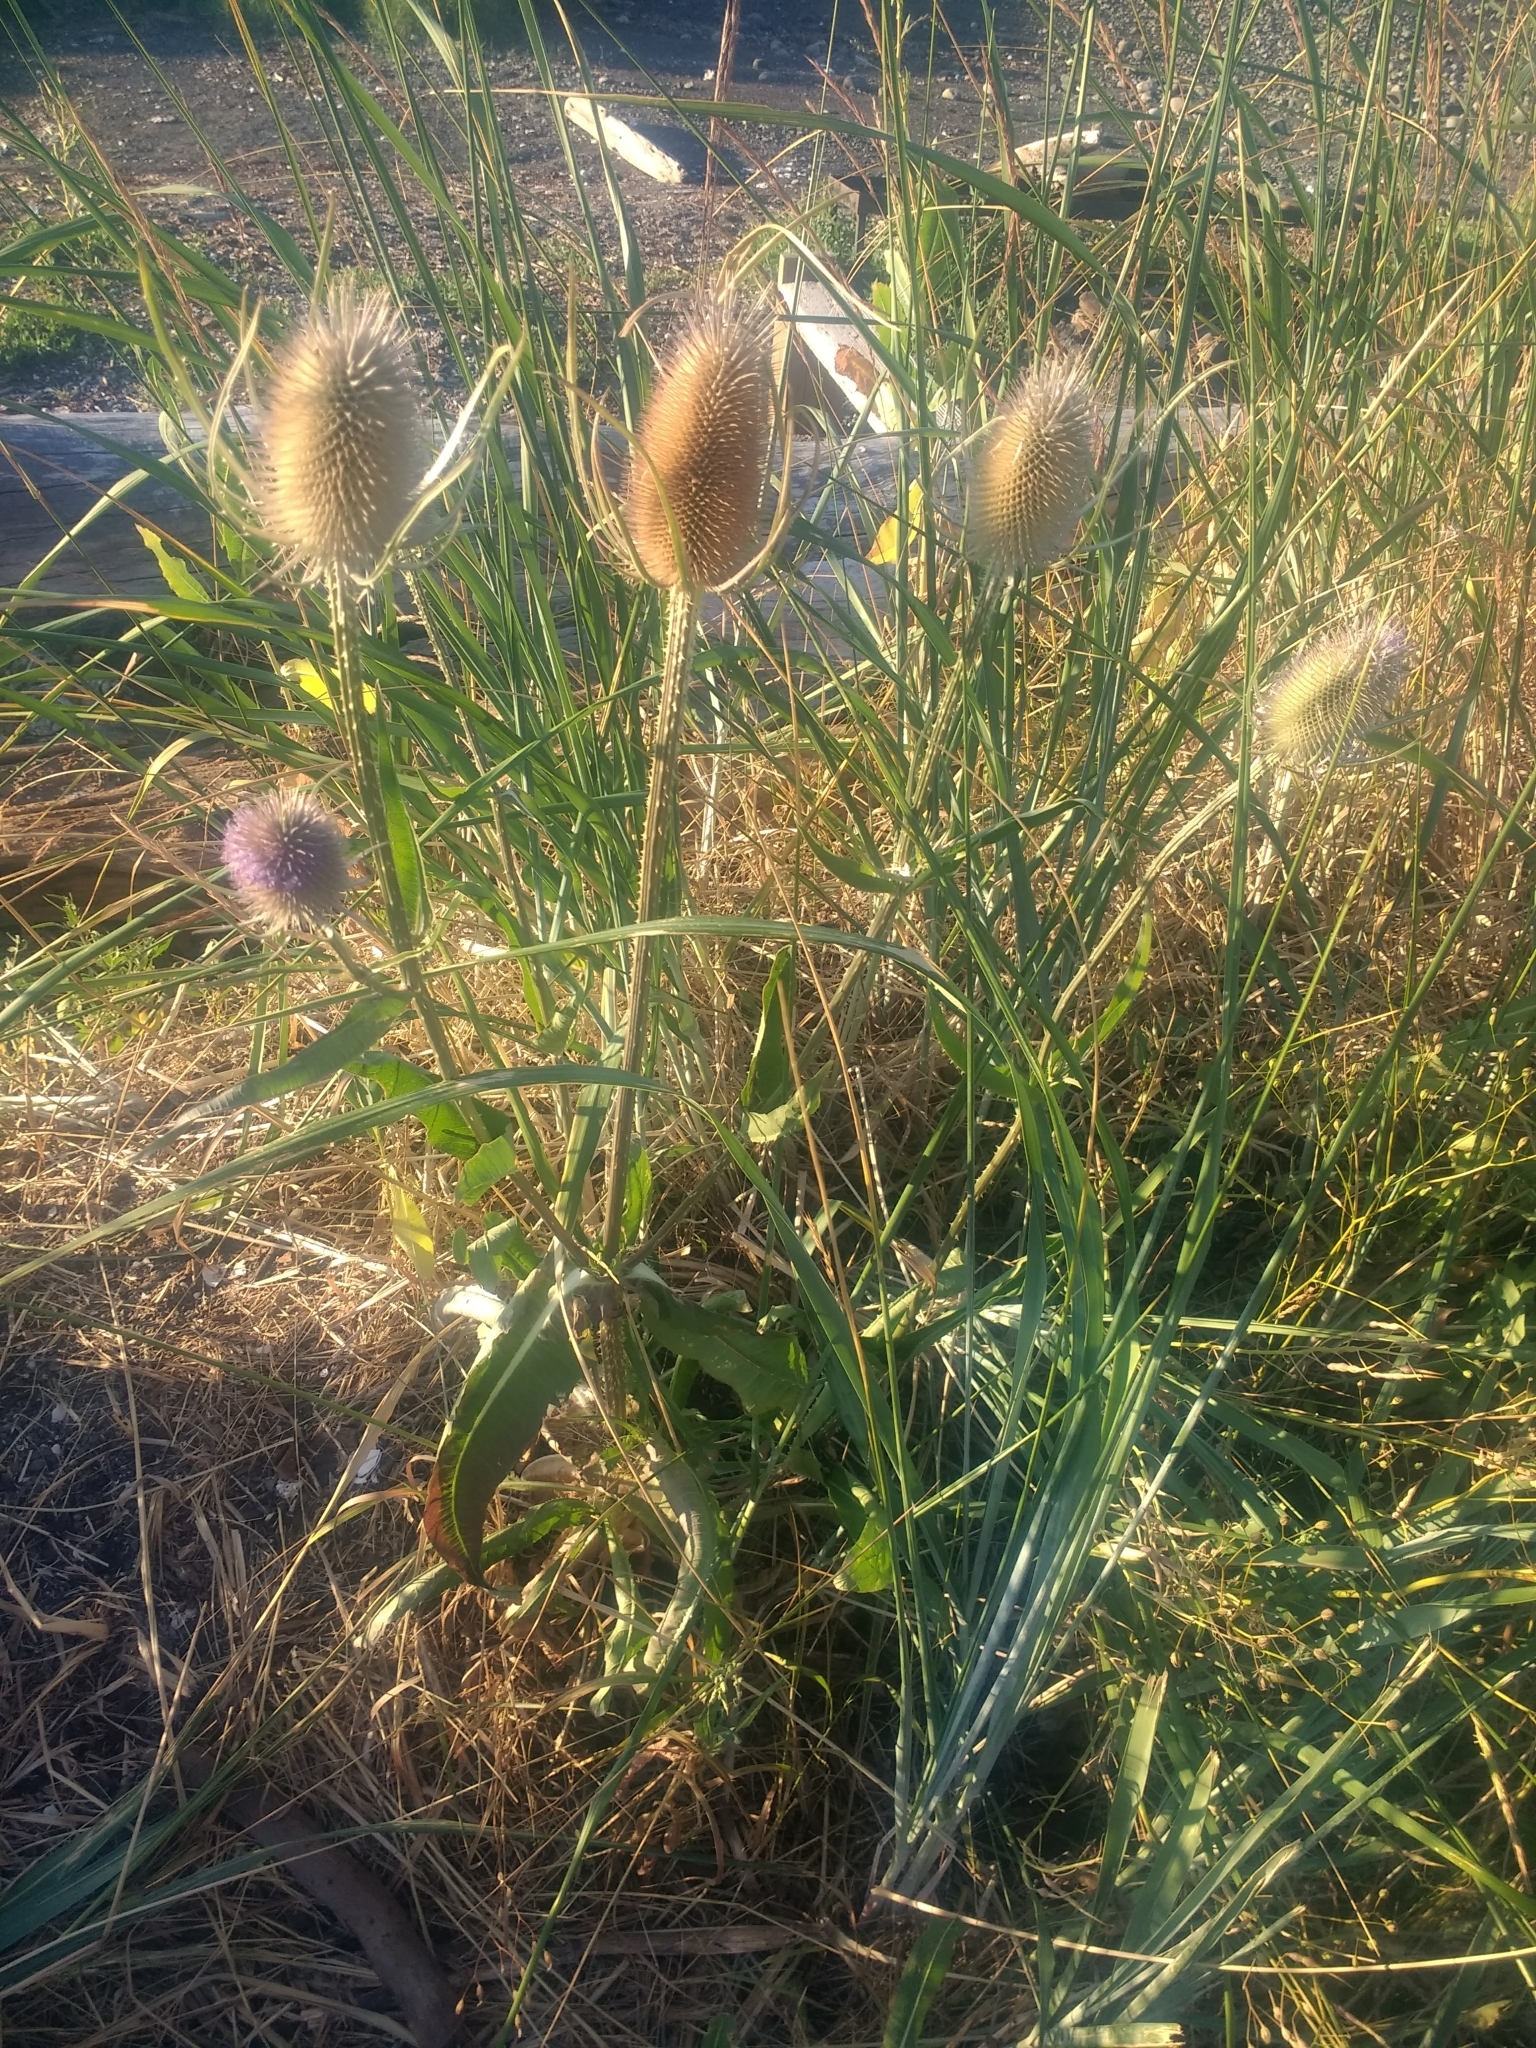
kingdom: Plantae
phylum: Tracheophyta
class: Magnoliopsida
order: Dipsacales
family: Caprifoliaceae
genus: Dipsacus
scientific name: Dipsacus fullonum
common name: Teasel
